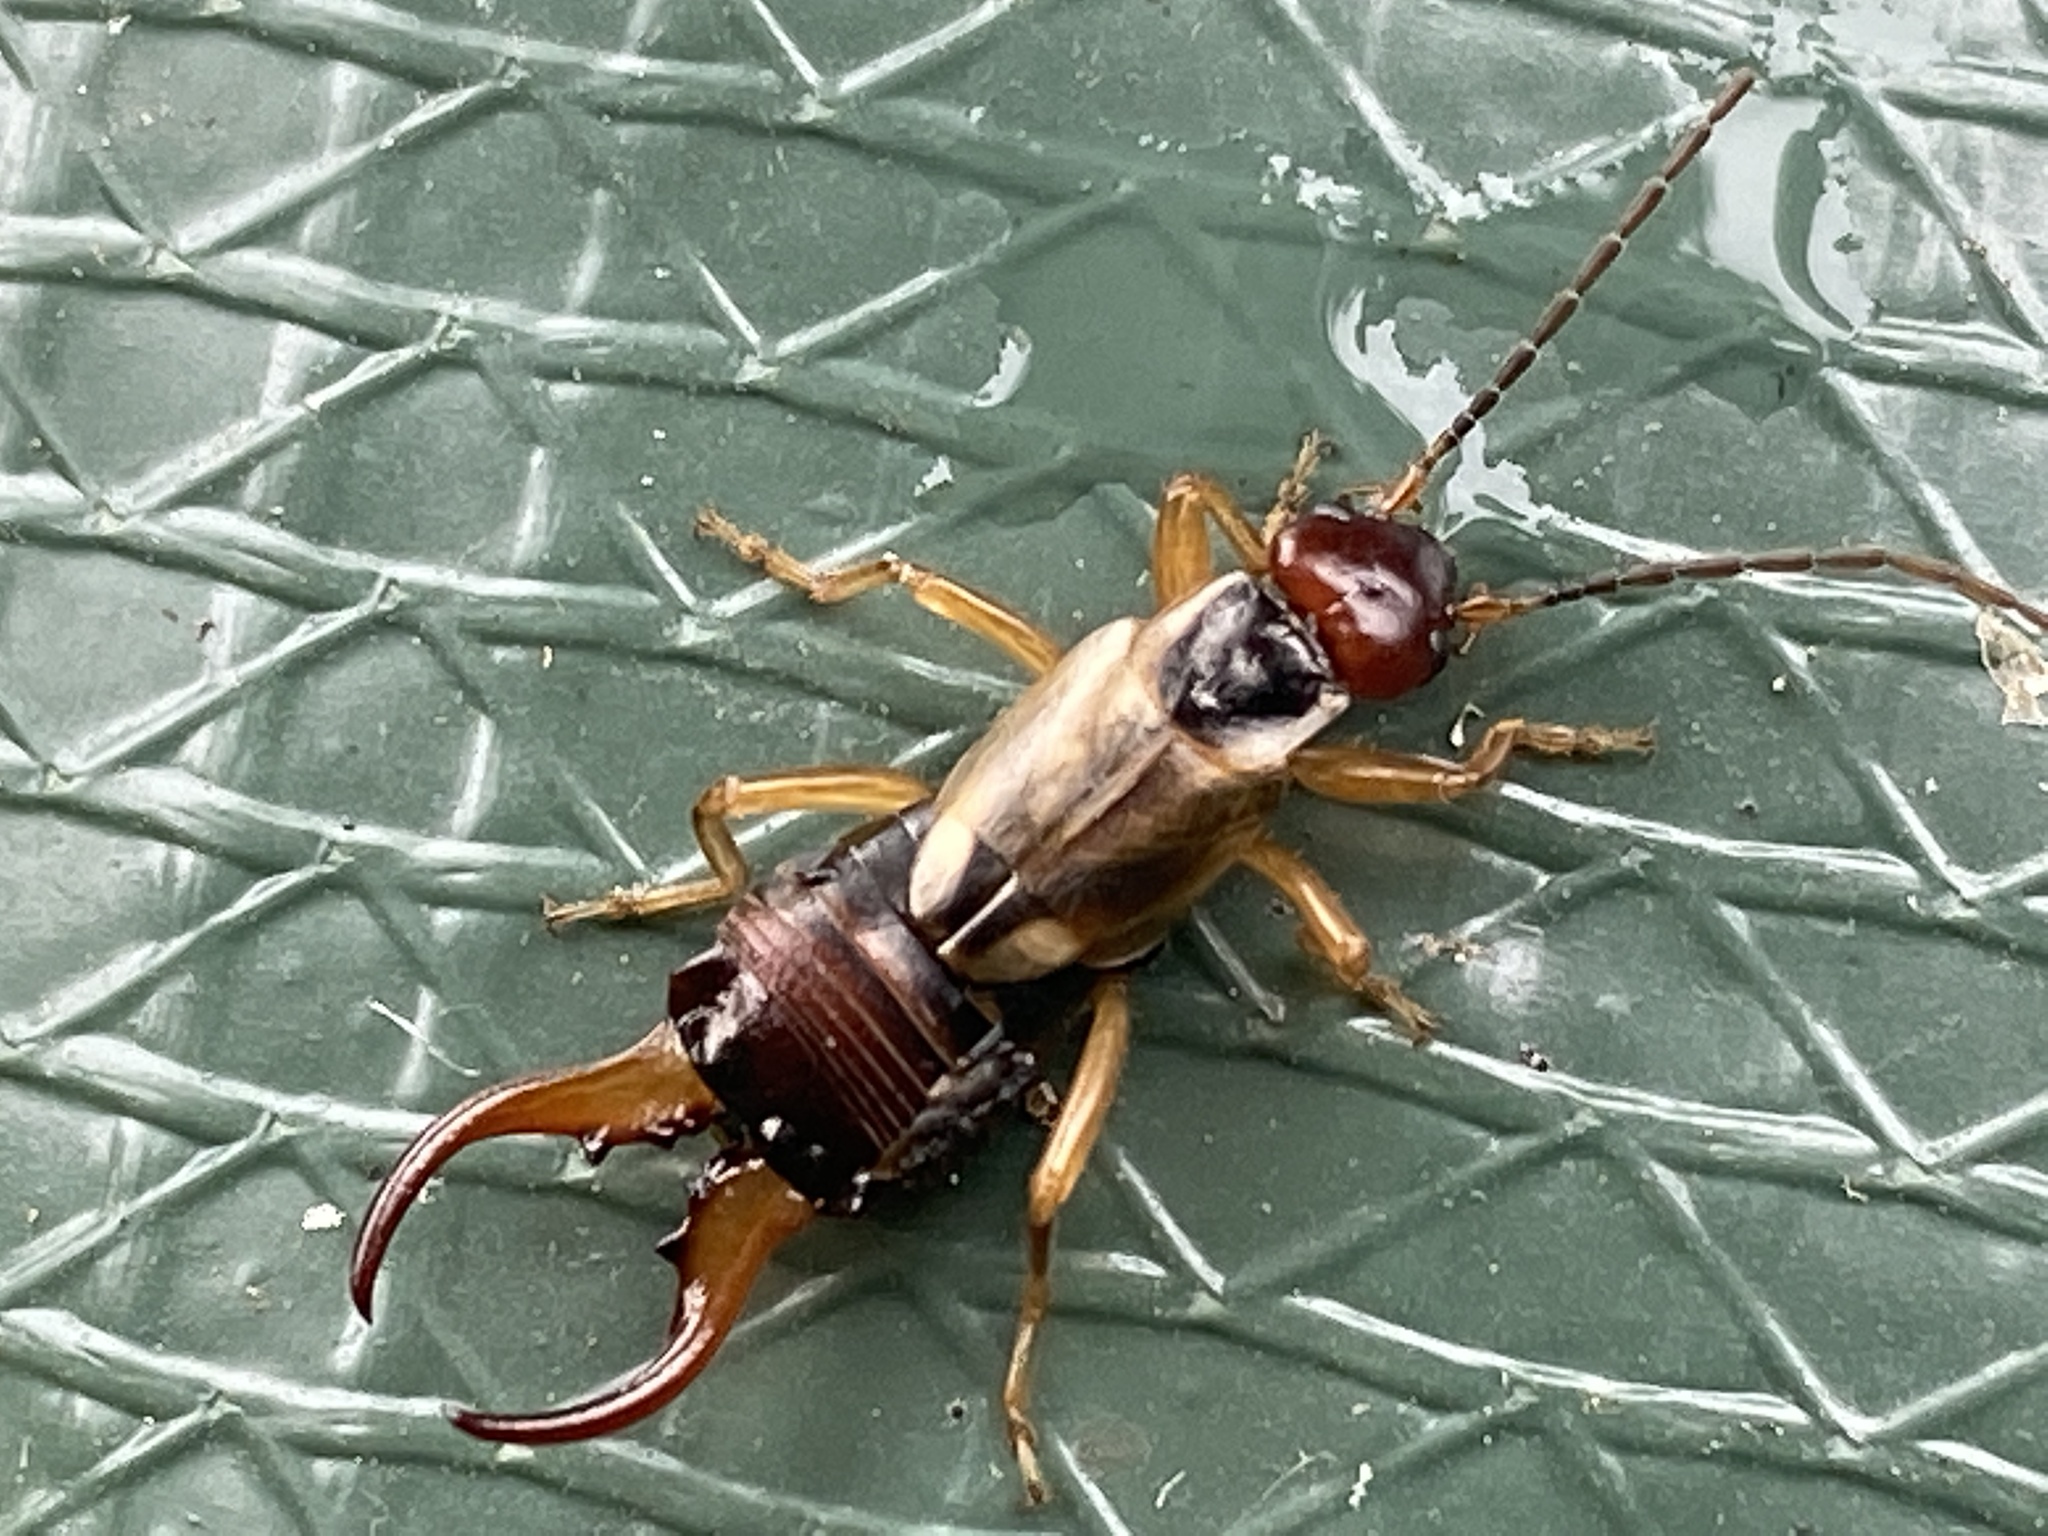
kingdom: Animalia
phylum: Arthropoda
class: Insecta
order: Dermaptera
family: Forficulidae
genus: Forficula
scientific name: Forficula
